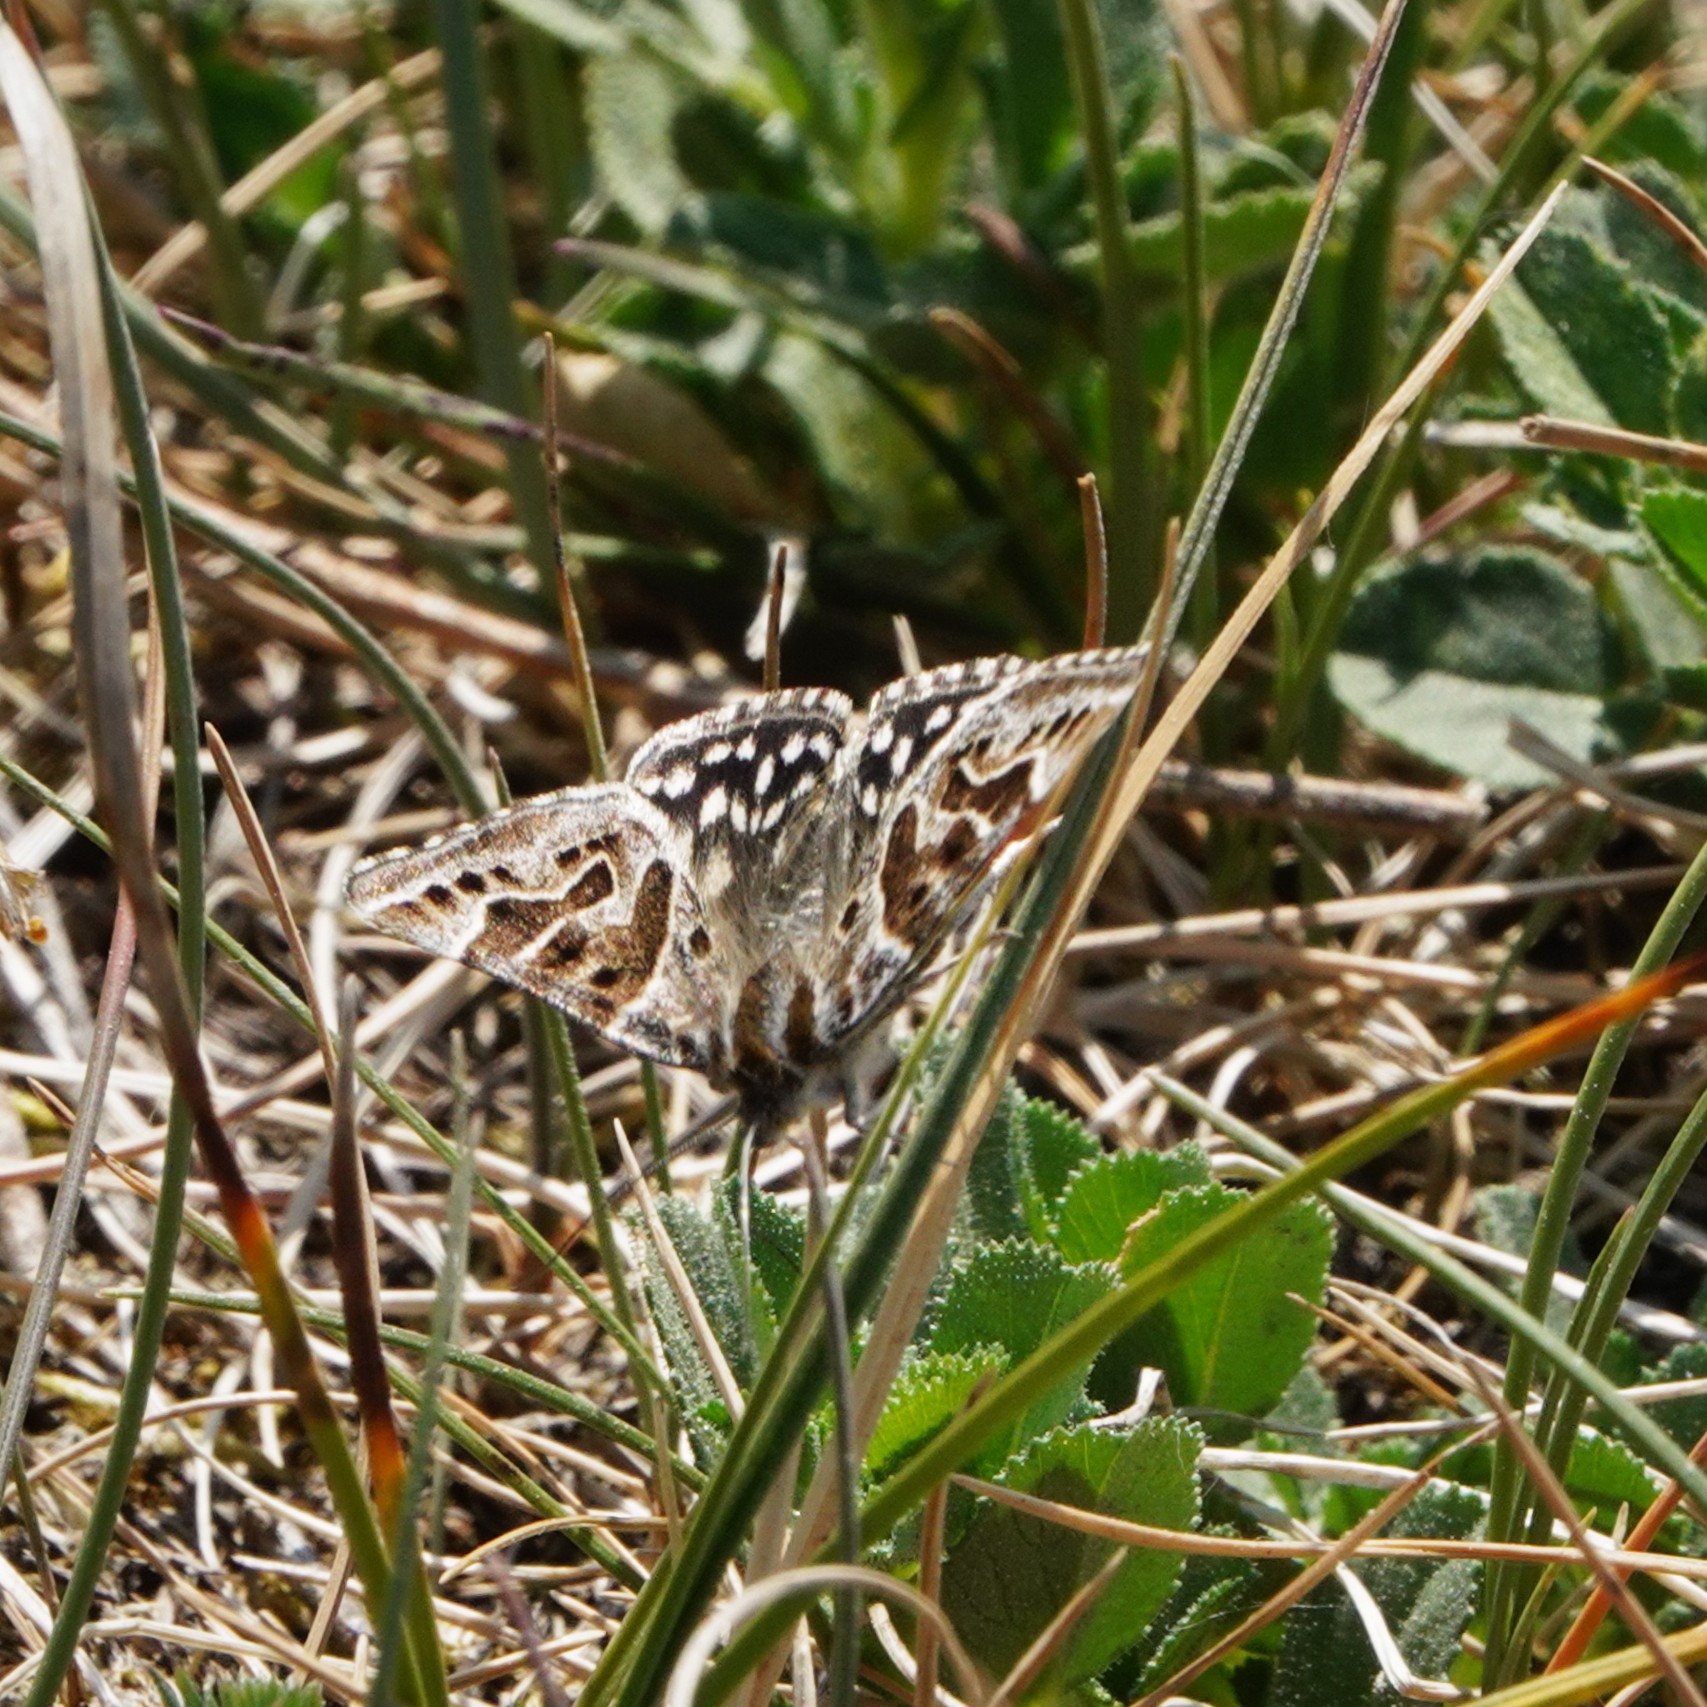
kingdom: Animalia
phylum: Arthropoda
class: Insecta
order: Lepidoptera
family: Erebidae
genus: Callistege
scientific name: Callistege mi
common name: Mother shipton
